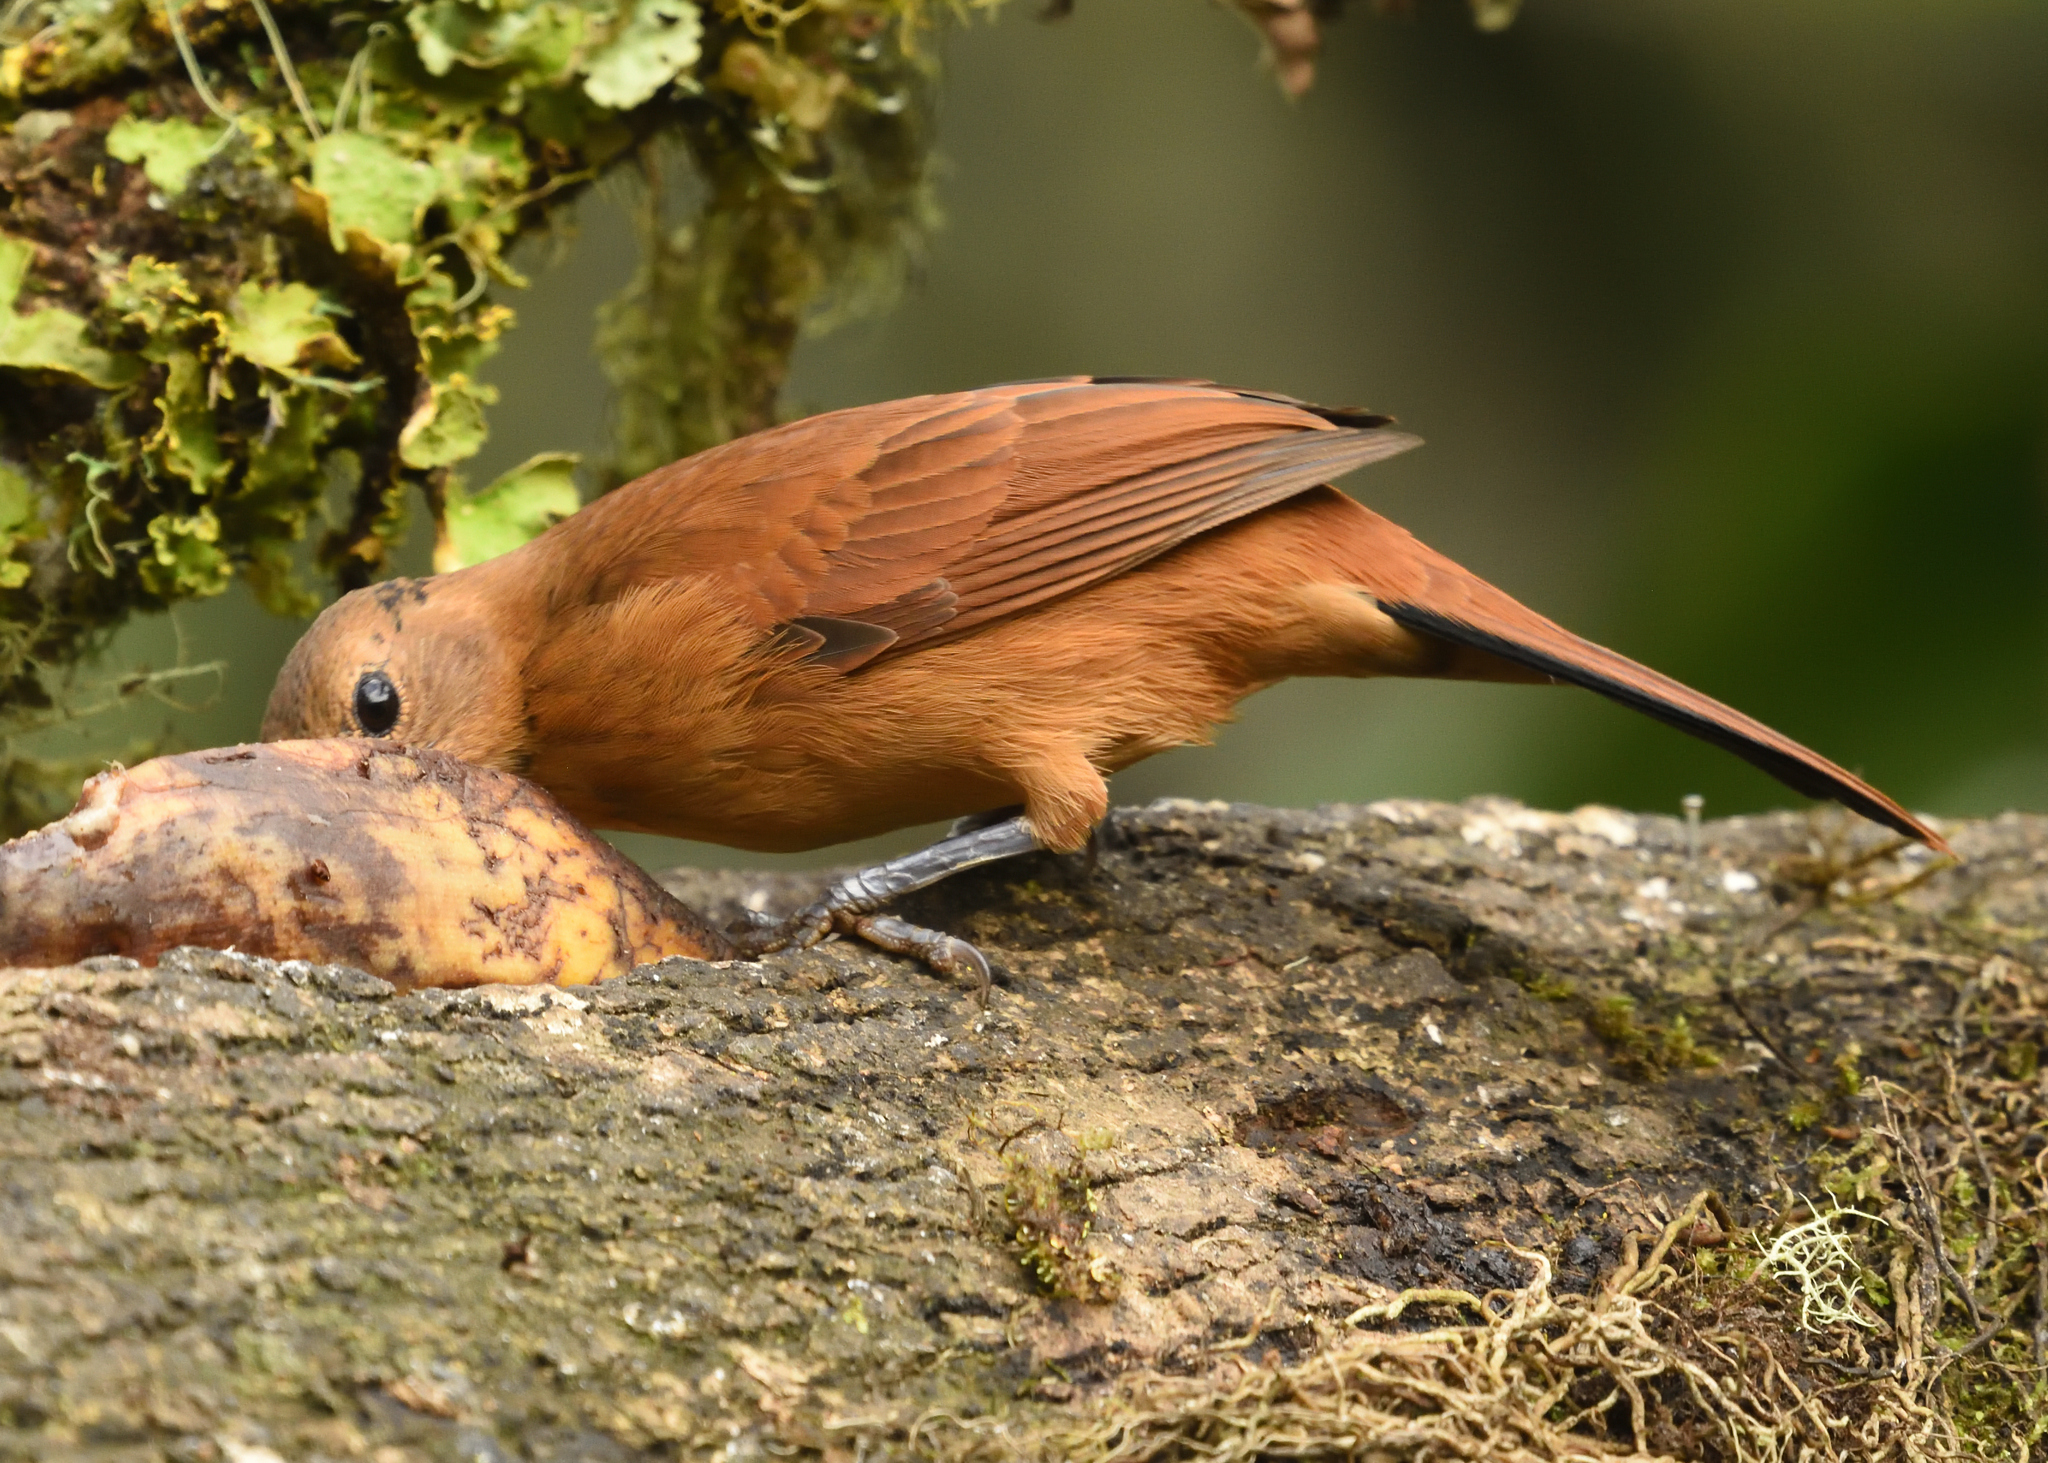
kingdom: Animalia
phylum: Chordata
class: Aves
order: Passeriformes
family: Thraupidae
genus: Tachyphonus
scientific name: Tachyphonus rufus
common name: White-lined tanager
